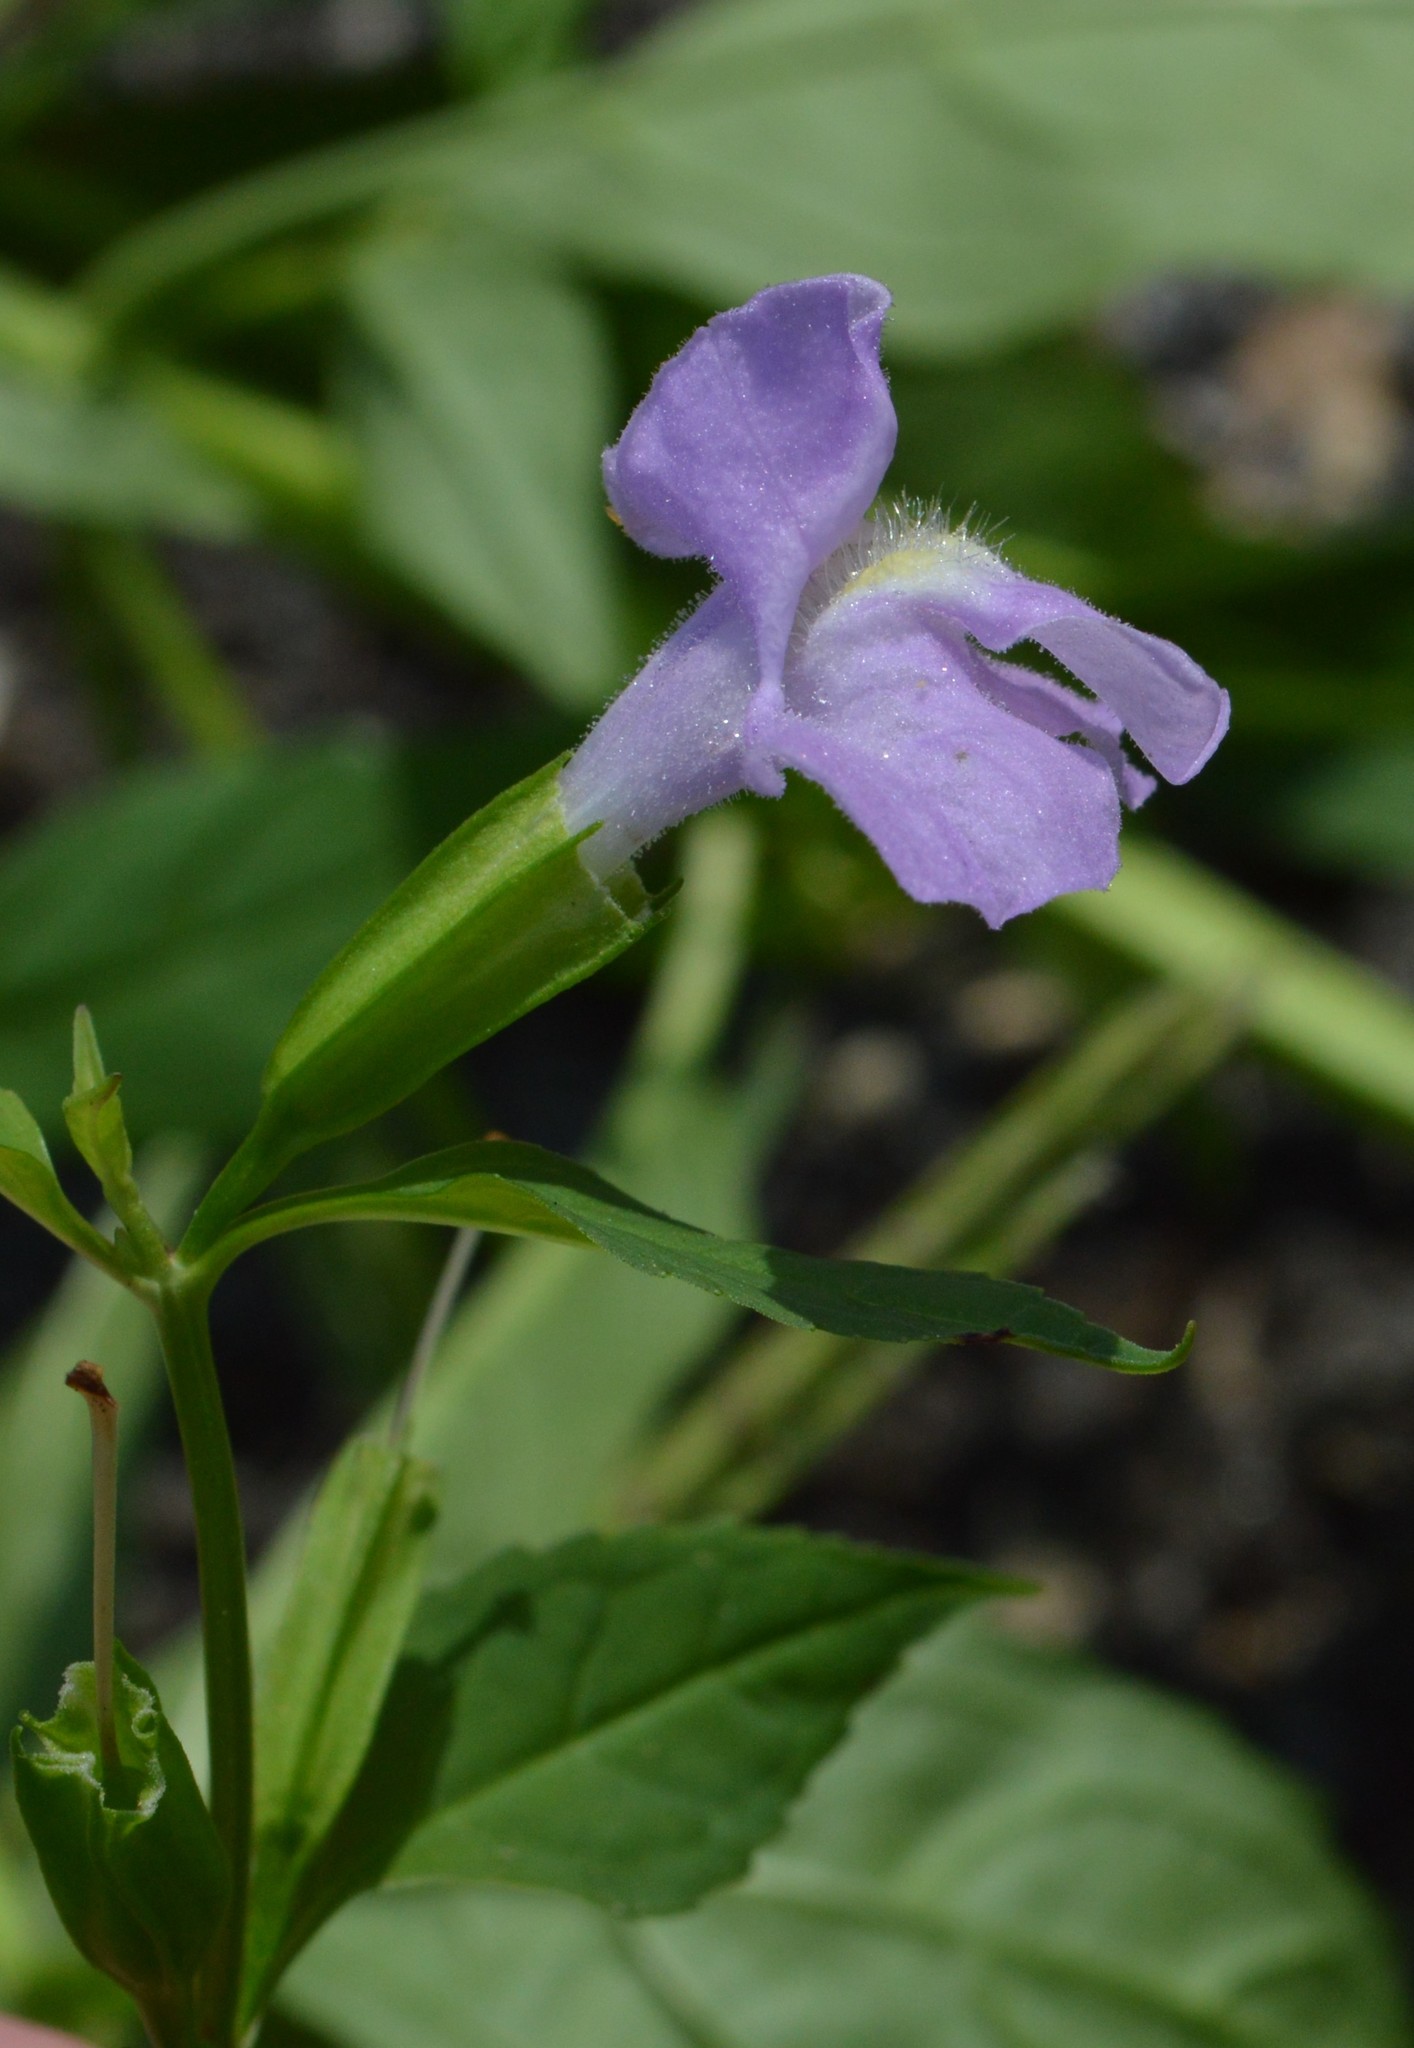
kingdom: Plantae
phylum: Tracheophyta
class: Magnoliopsida
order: Lamiales
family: Phrymaceae
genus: Mimulus
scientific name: Mimulus alatus
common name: Sharp-wing monkey-flower
